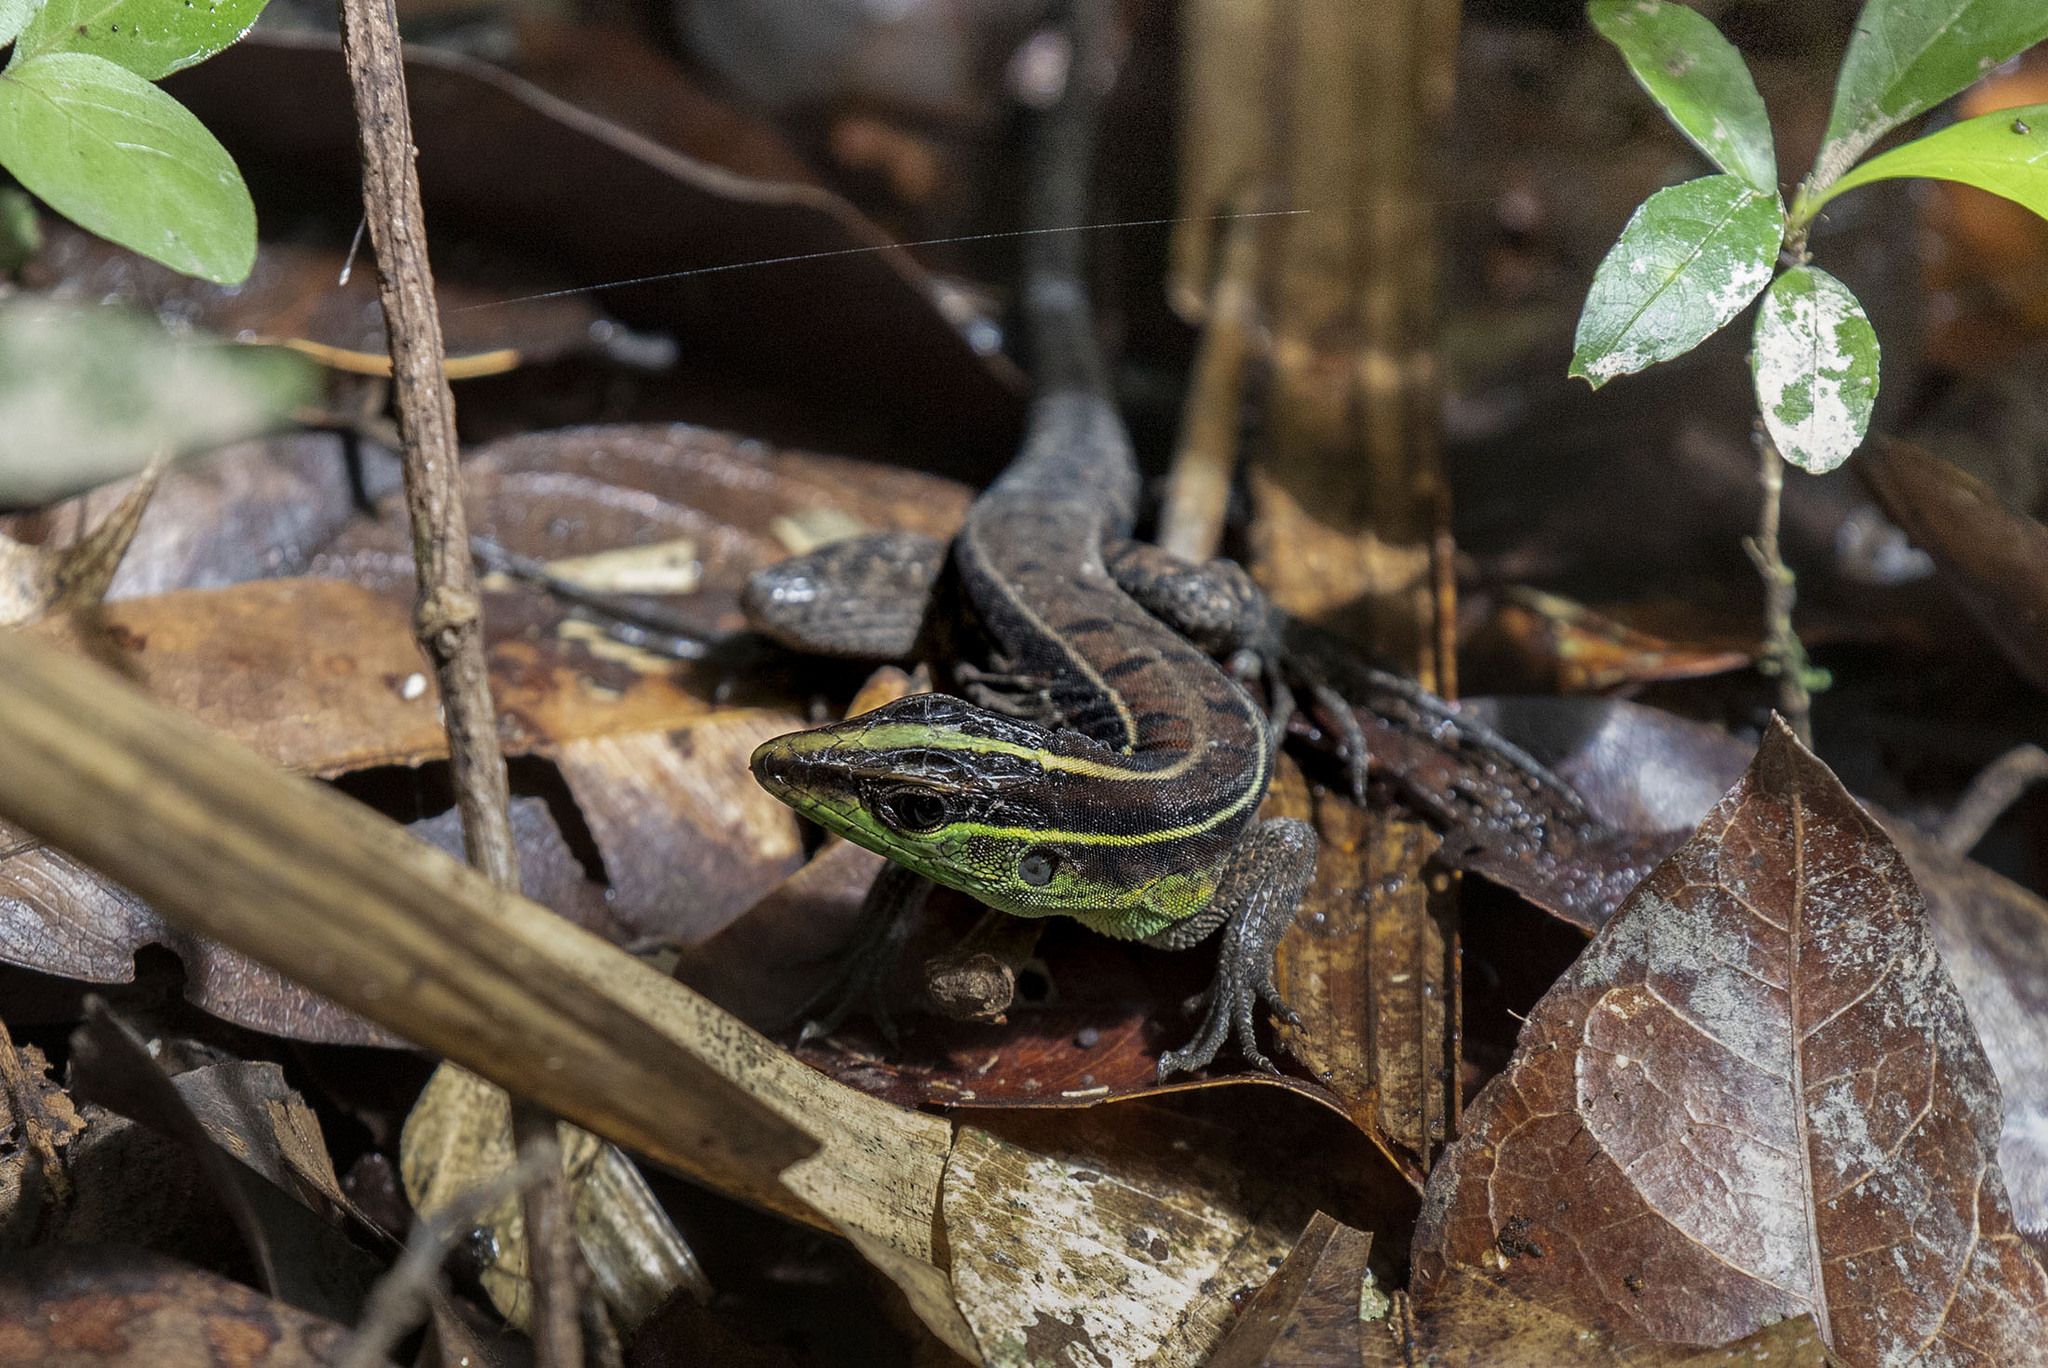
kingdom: Animalia
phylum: Chordata
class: Squamata
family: Teiidae
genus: Kentropyx
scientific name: Kentropyx calcarata
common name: Striped forest whiptail
